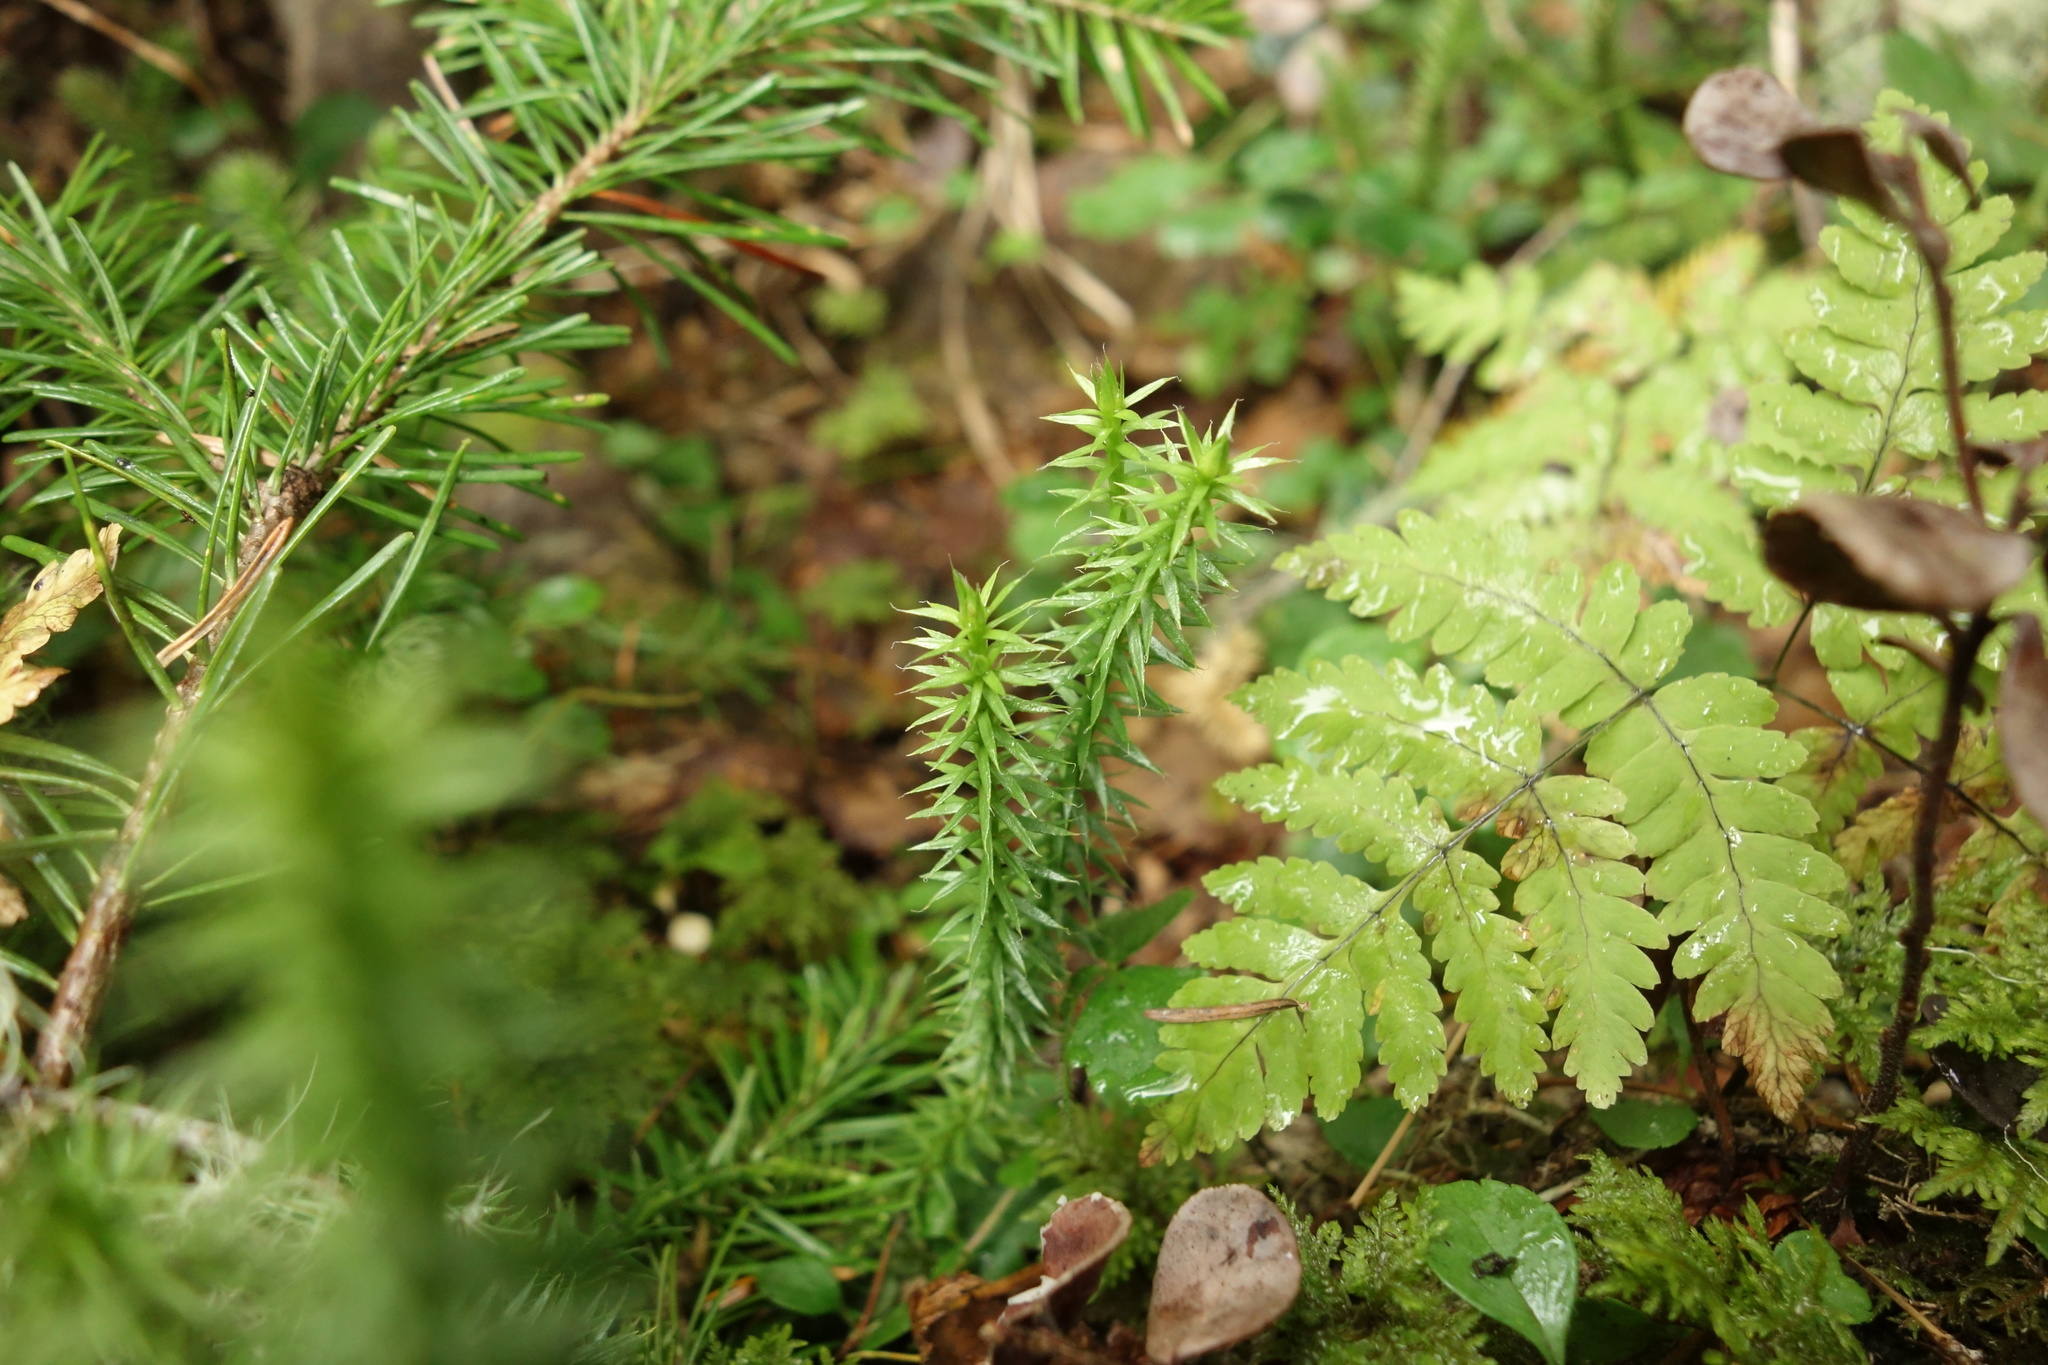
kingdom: Plantae
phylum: Tracheophyta
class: Lycopodiopsida
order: Lycopodiales
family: Lycopodiaceae
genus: Spinulum
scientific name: Spinulum annotinum
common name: Interrupted club-moss
